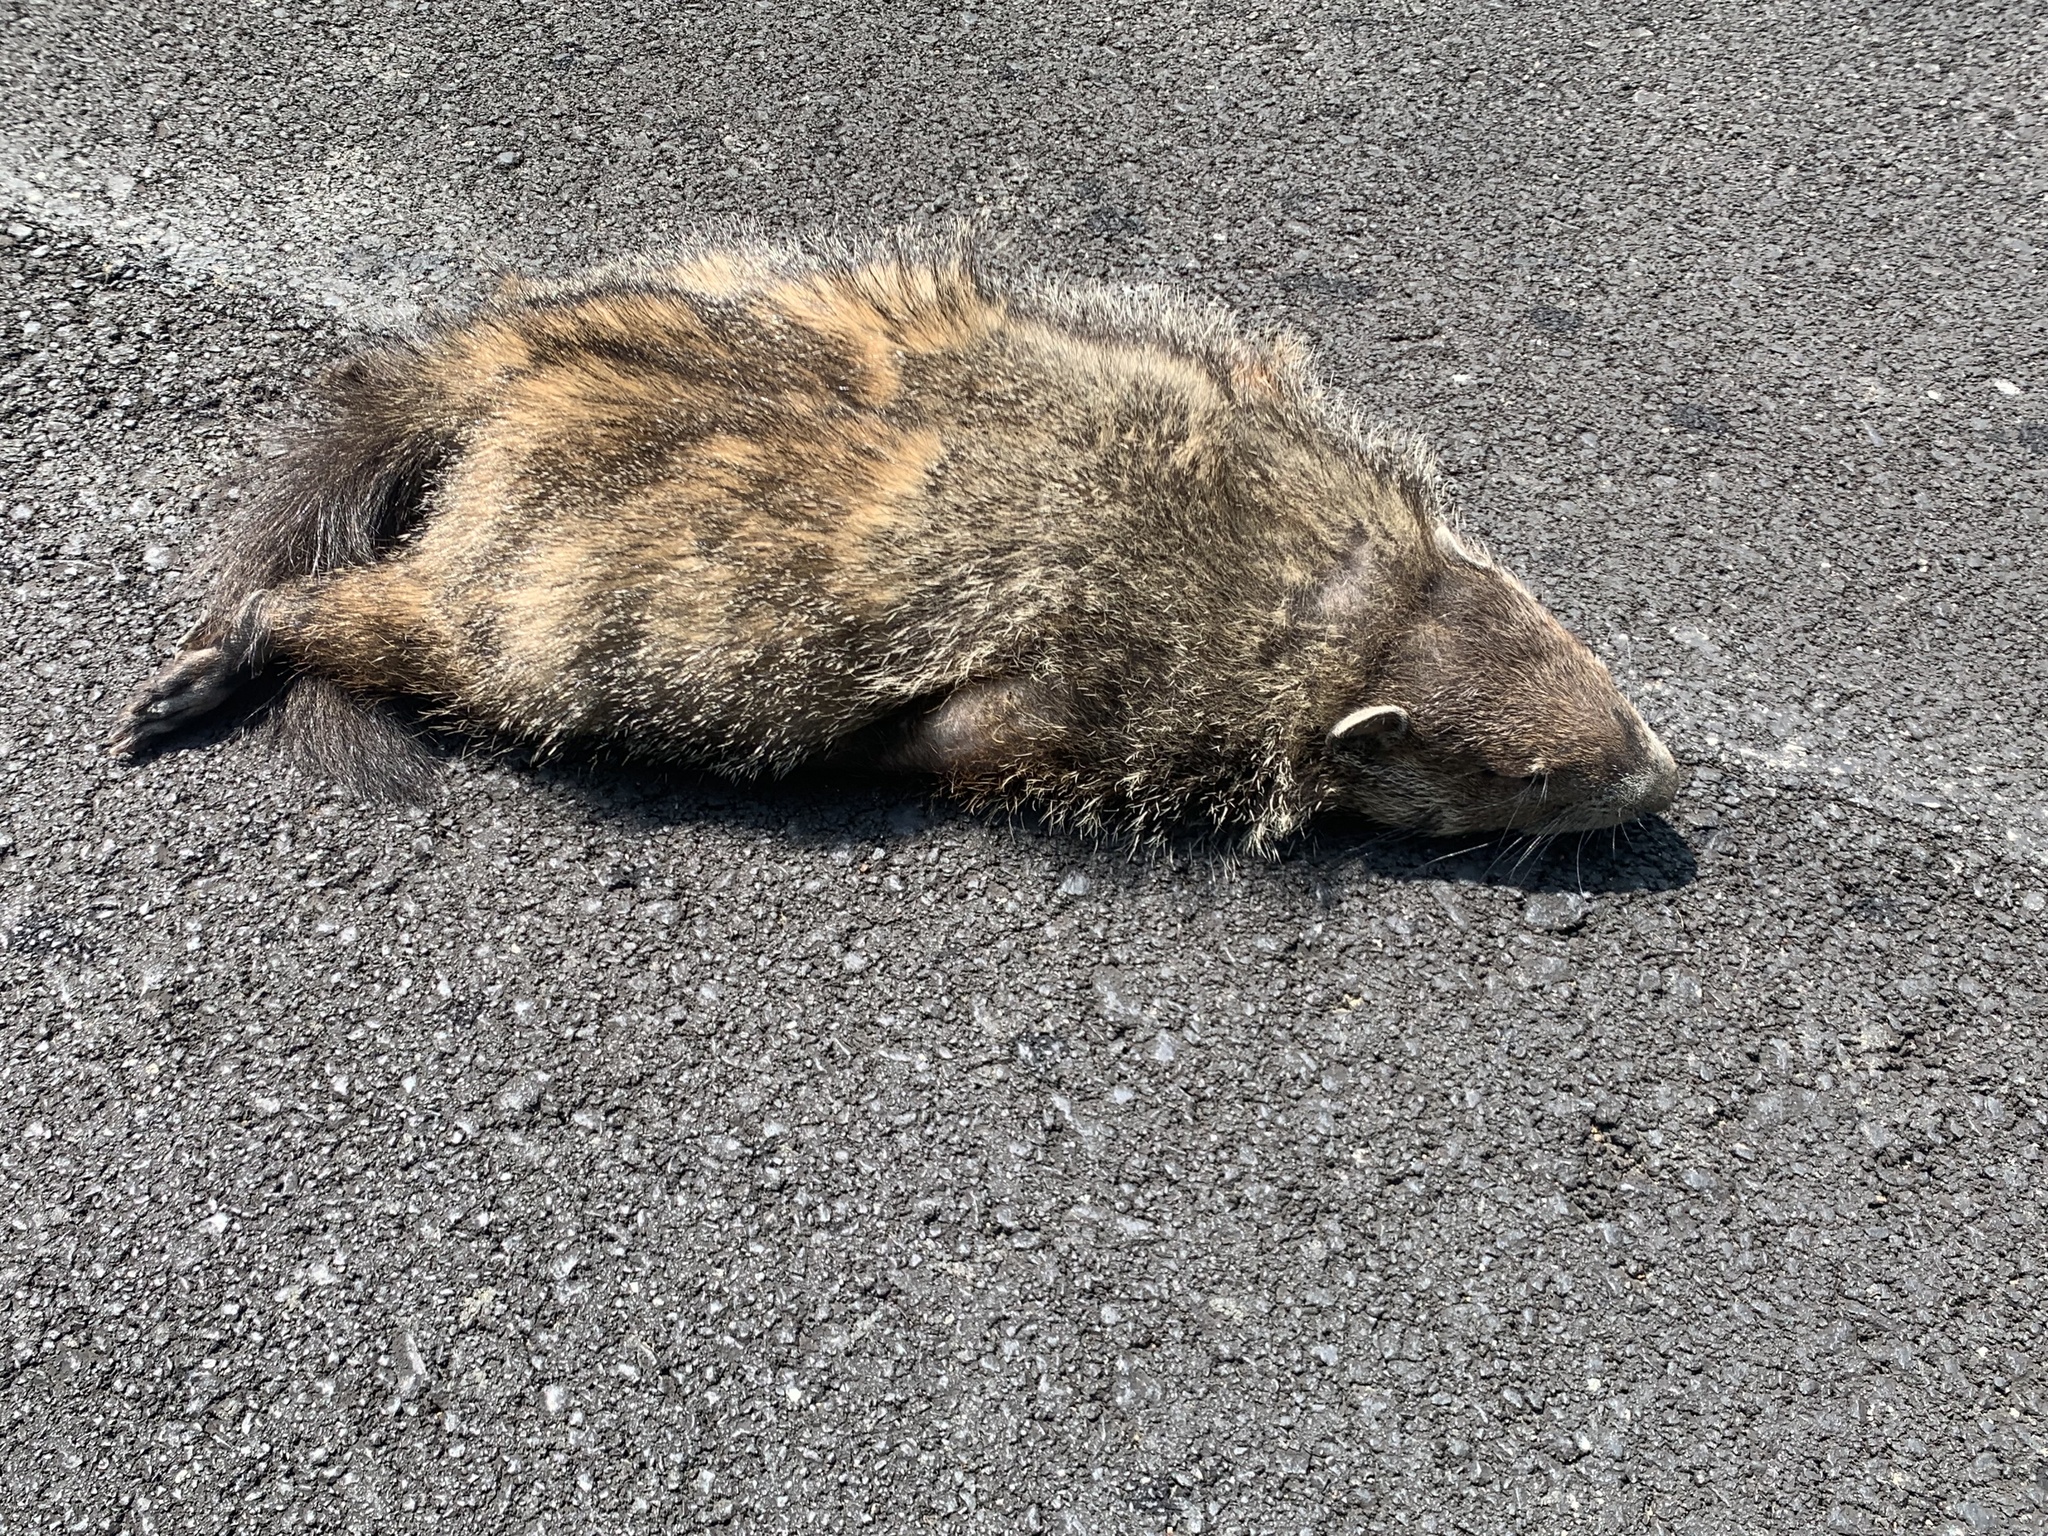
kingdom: Animalia
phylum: Chordata
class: Mammalia
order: Rodentia
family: Sciuridae
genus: Marmota
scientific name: Marmota monax
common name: Groundhog
